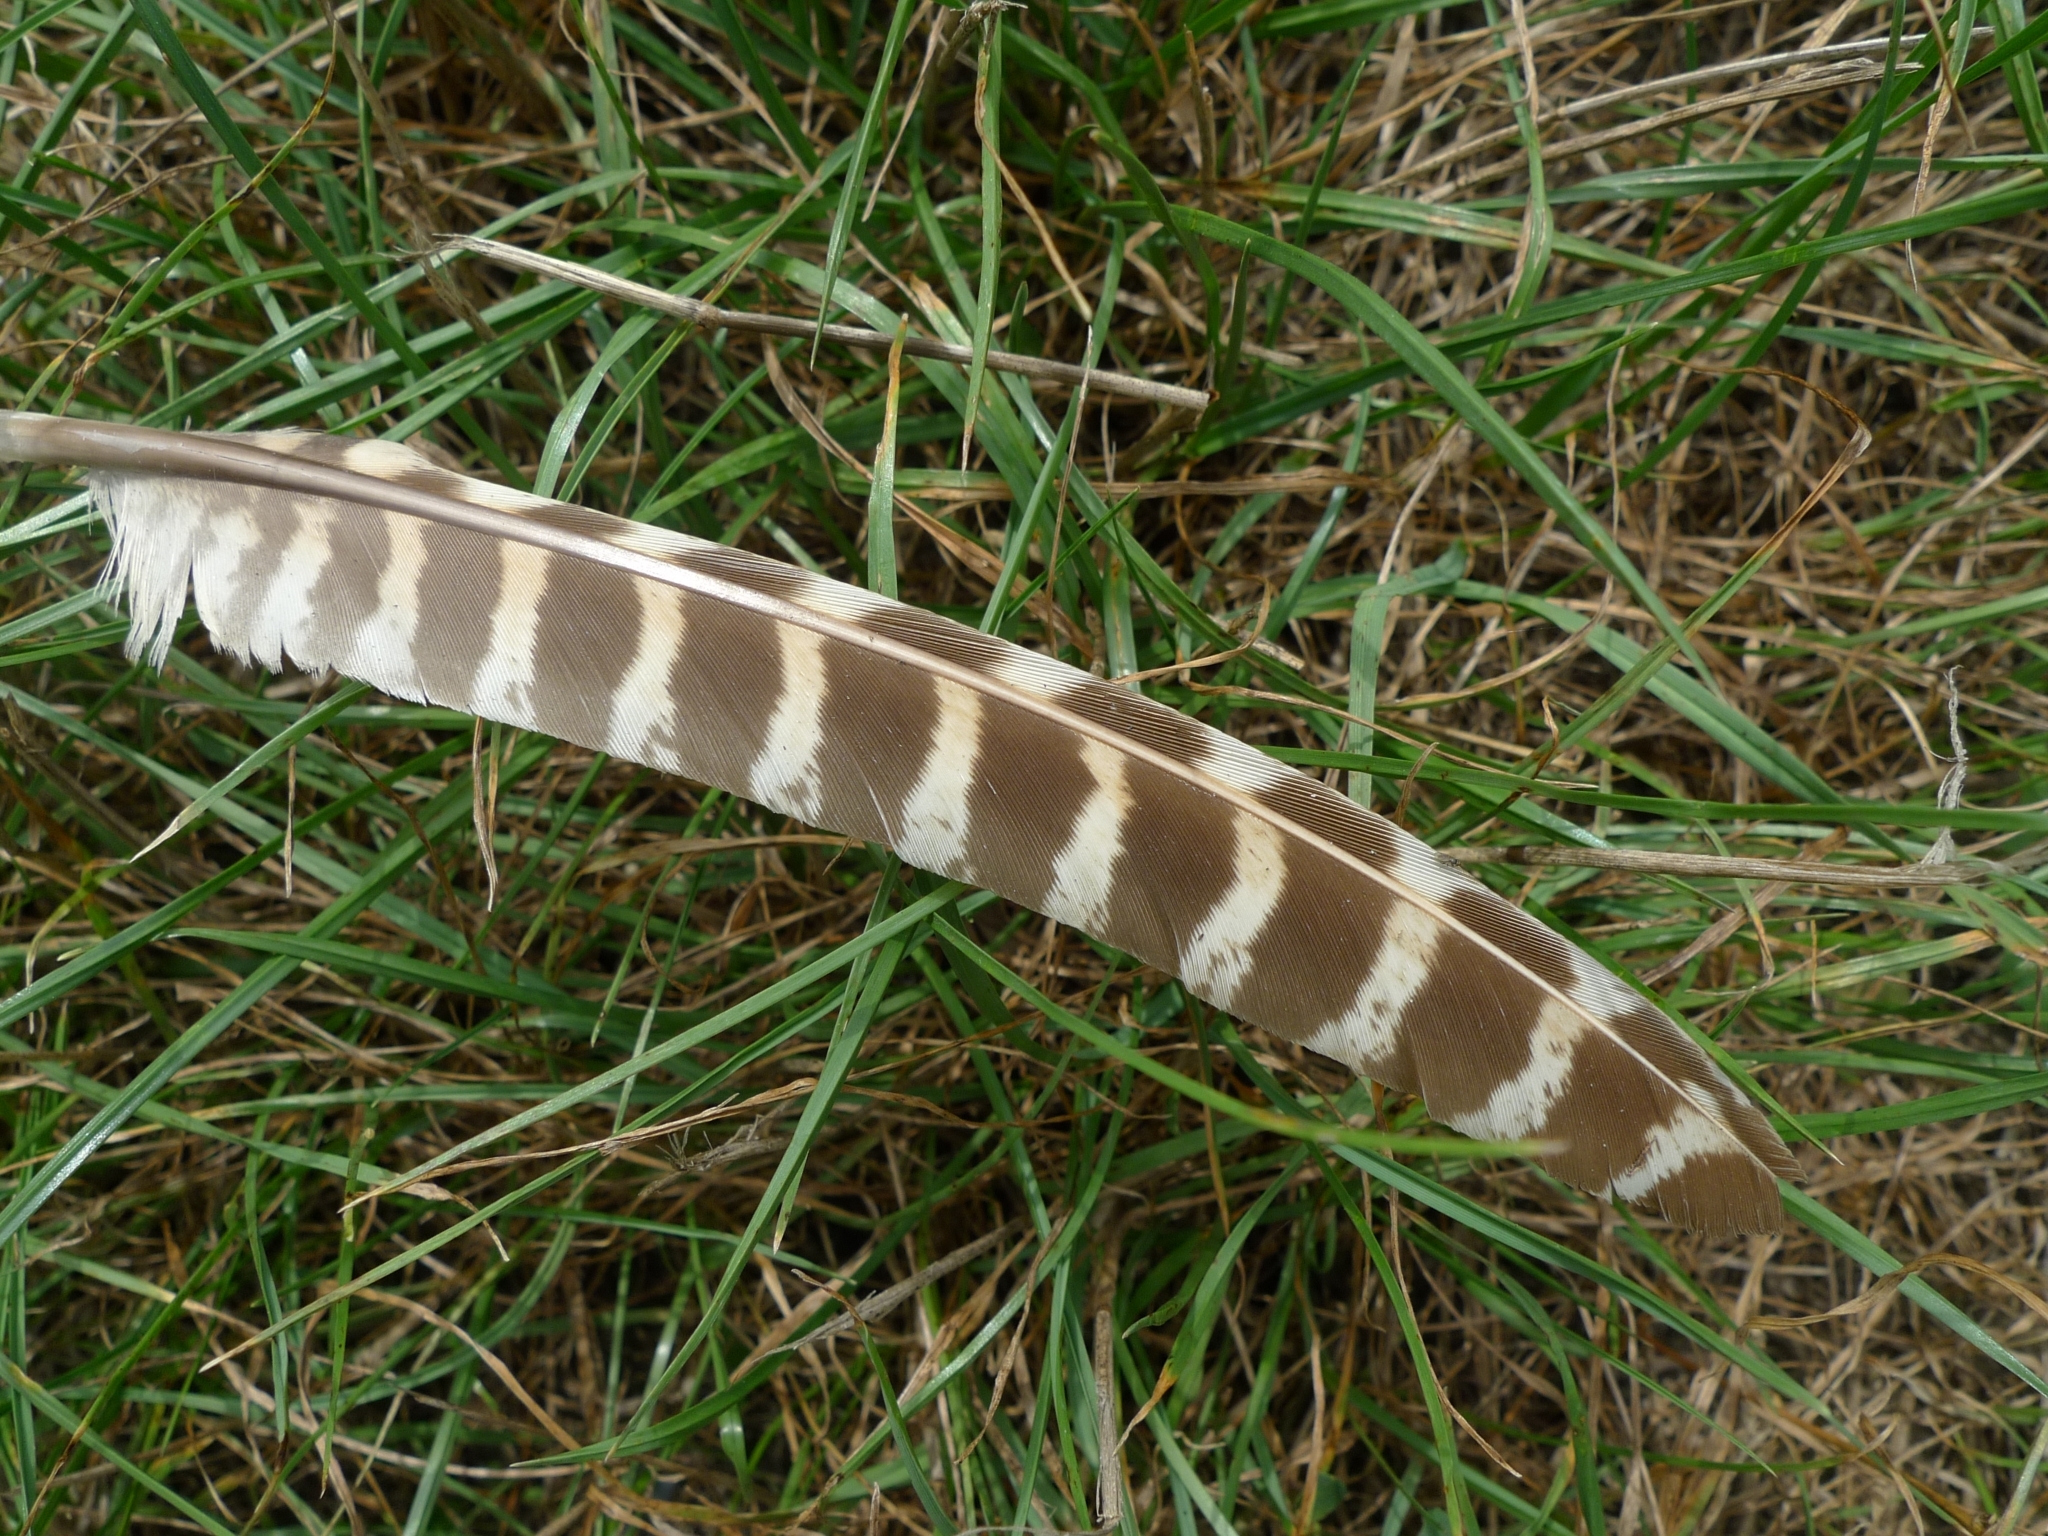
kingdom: Animalia
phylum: Chordata
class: Aves
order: Galliformes
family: Phasianidae
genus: Phasianus
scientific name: Phasianus colchicus
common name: Common pheasant
